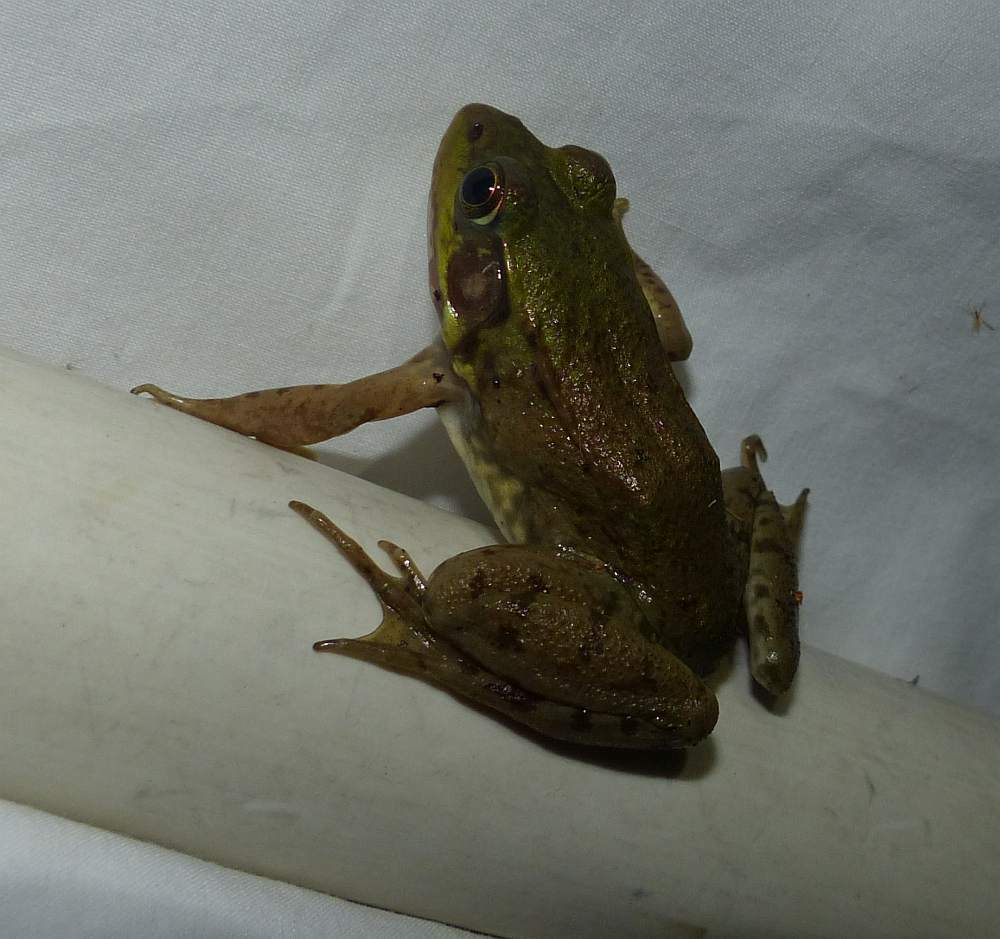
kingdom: Animalia
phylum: Chordata
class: Amphibia
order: Anura
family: Ranidae
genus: Lithobates
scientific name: Lithobates clamitans
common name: Green frog
